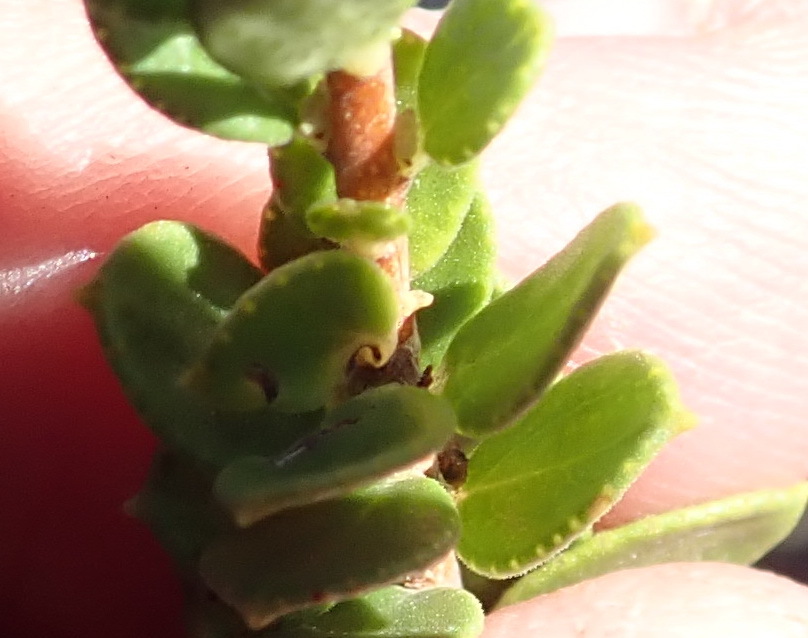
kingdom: Plantae
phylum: Tracheophyta
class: Magnoliopsida
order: Sapindales
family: Rutaceae
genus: Agathosma
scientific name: Agathosma ovata
